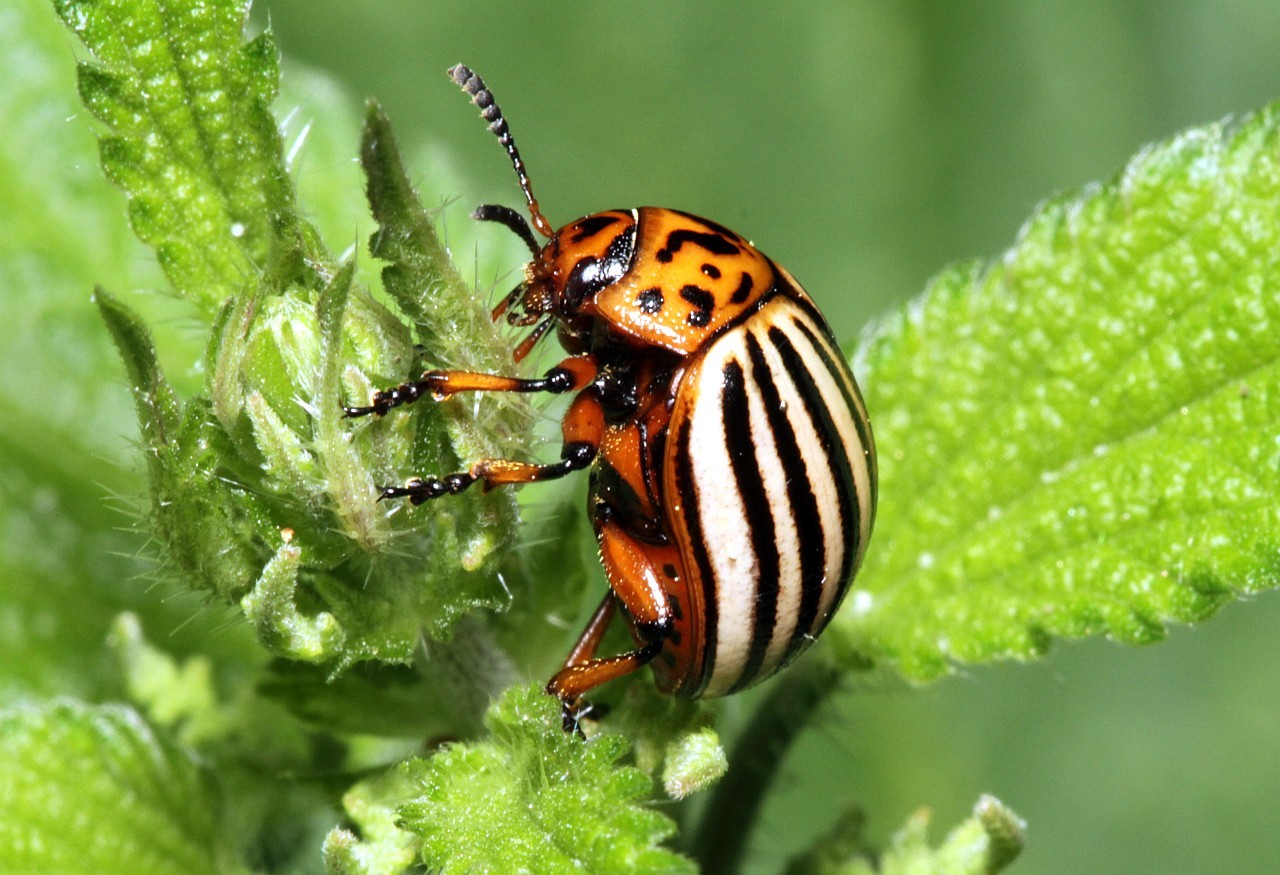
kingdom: Animalia
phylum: Arthropoda
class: Insecta
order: Coleoptera
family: Chrysomelidae
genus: Leptinotarsa
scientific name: Leptinotarsa decemlineata
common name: Colorado potato beetle
